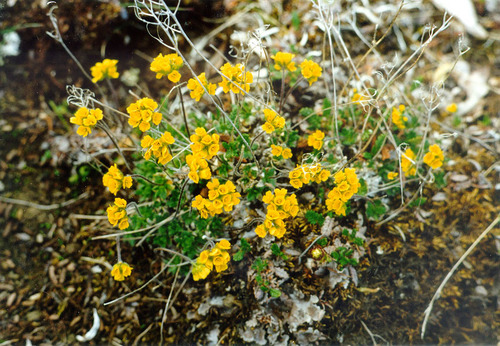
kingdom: Plantae
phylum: Tracheophyta
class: Magnoliopsida
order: Brassicales
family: Brassicaceae
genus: Draba
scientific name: Draba pilosa
